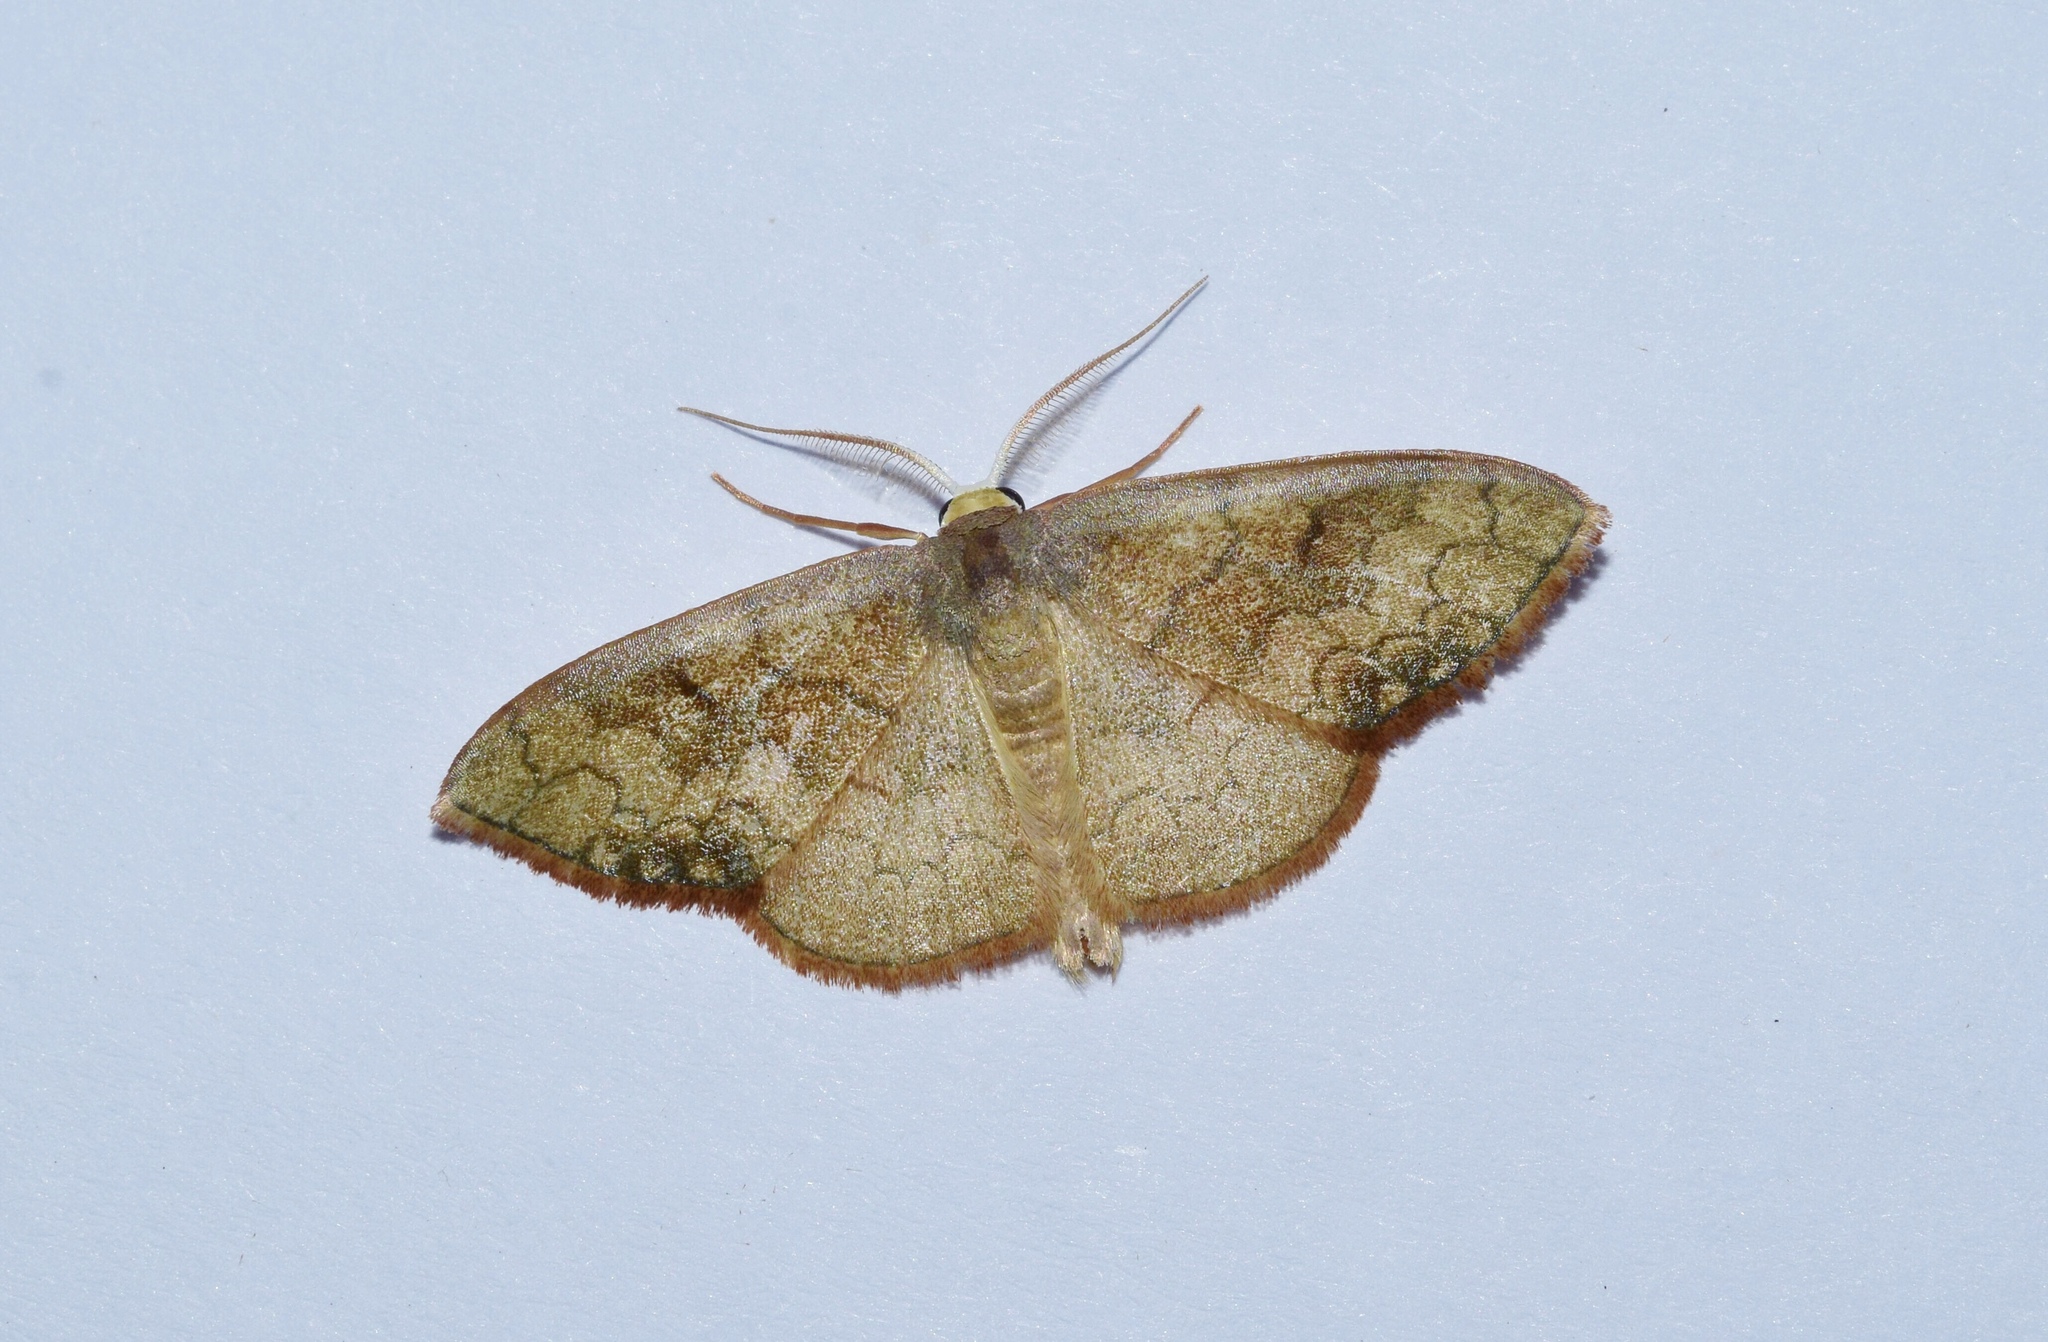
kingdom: Animalia
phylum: Arthropoda
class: Insecta
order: Lepidoptera
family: Geometridae
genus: Epicosymbia
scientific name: Epicosymbia nitidata
